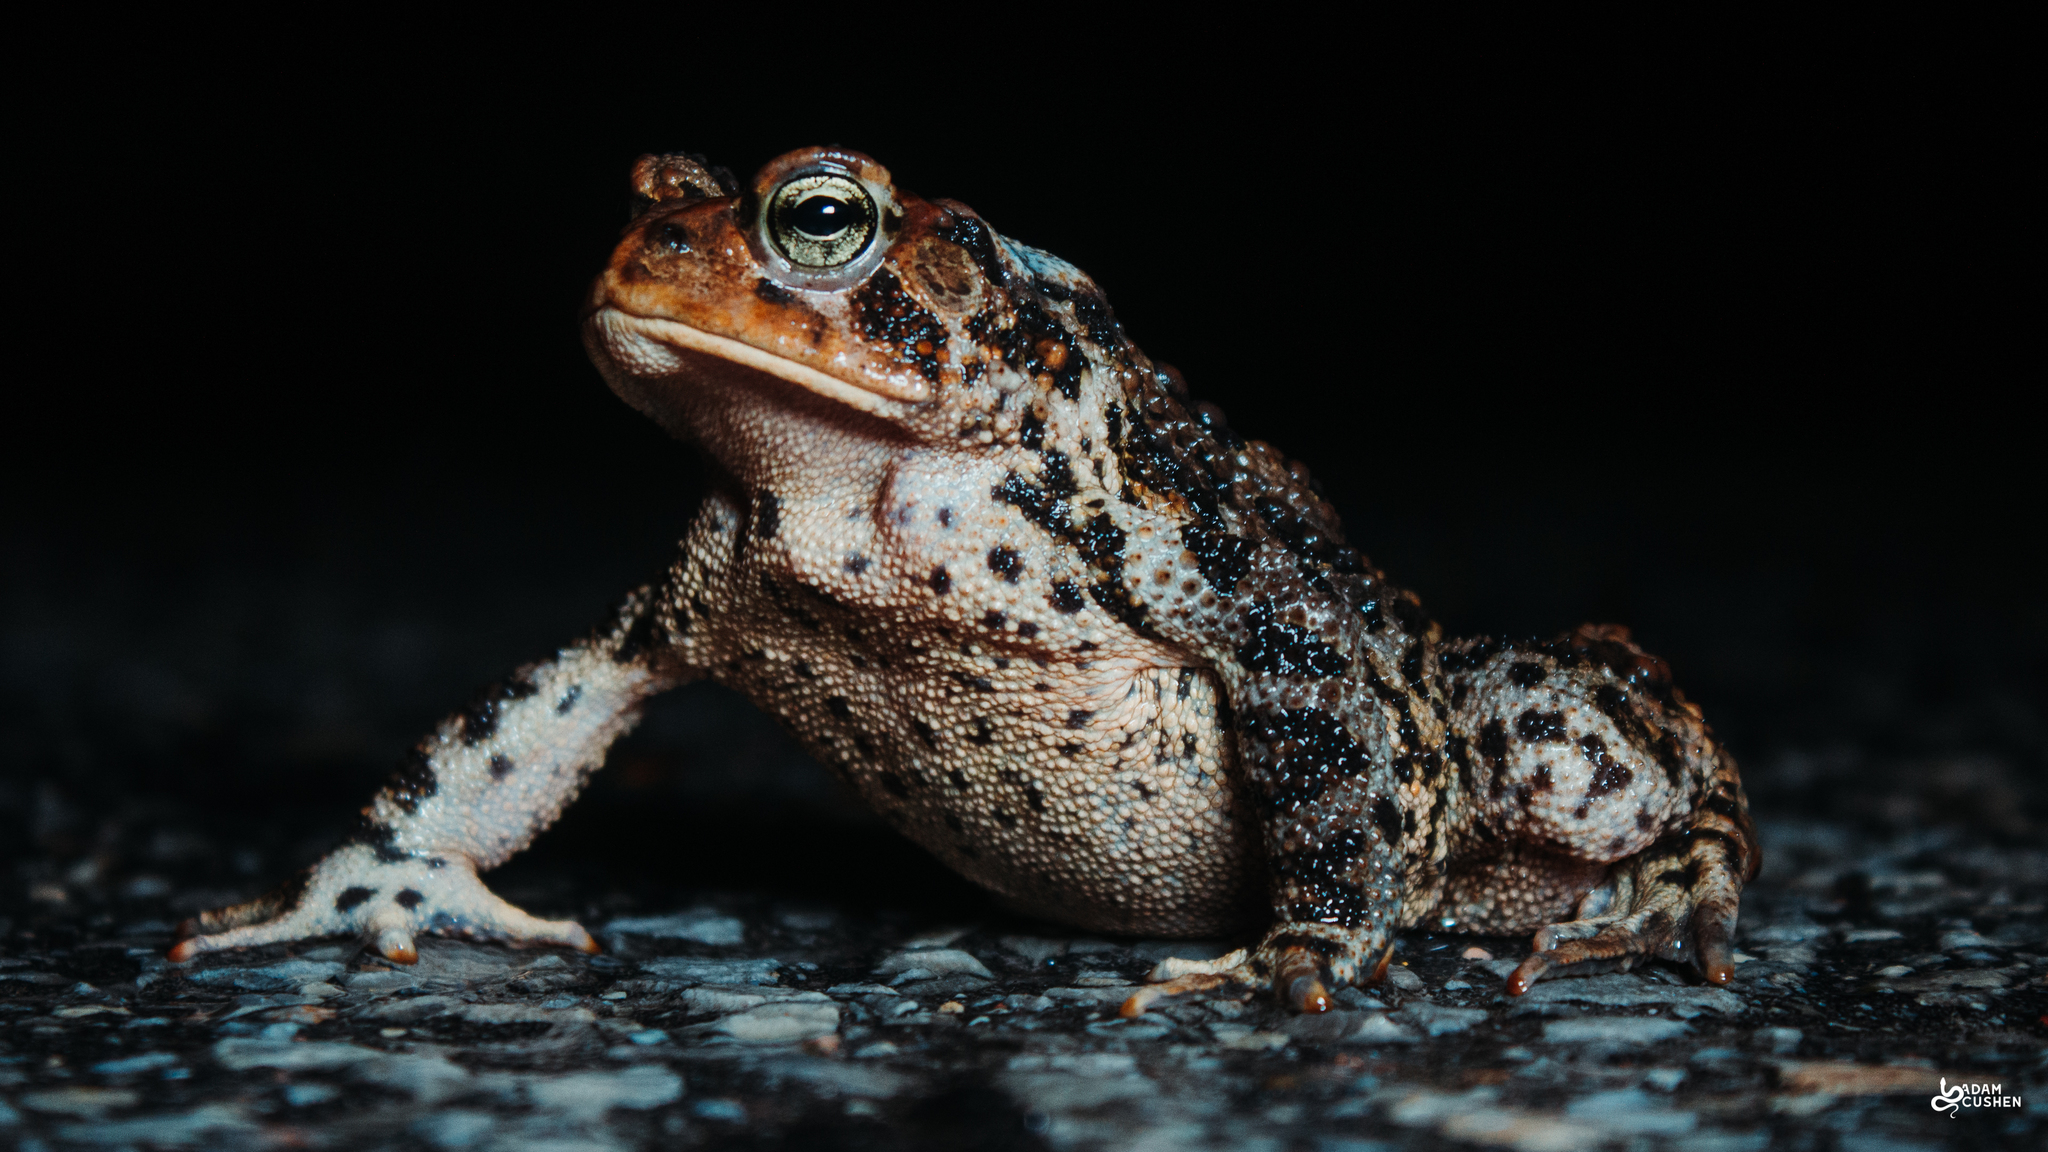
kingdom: Animalia
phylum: Chordata
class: Amphibia
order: Anura
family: Bufonidae
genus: Anaxyrus
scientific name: Anaxyrus americanus
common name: American toad
